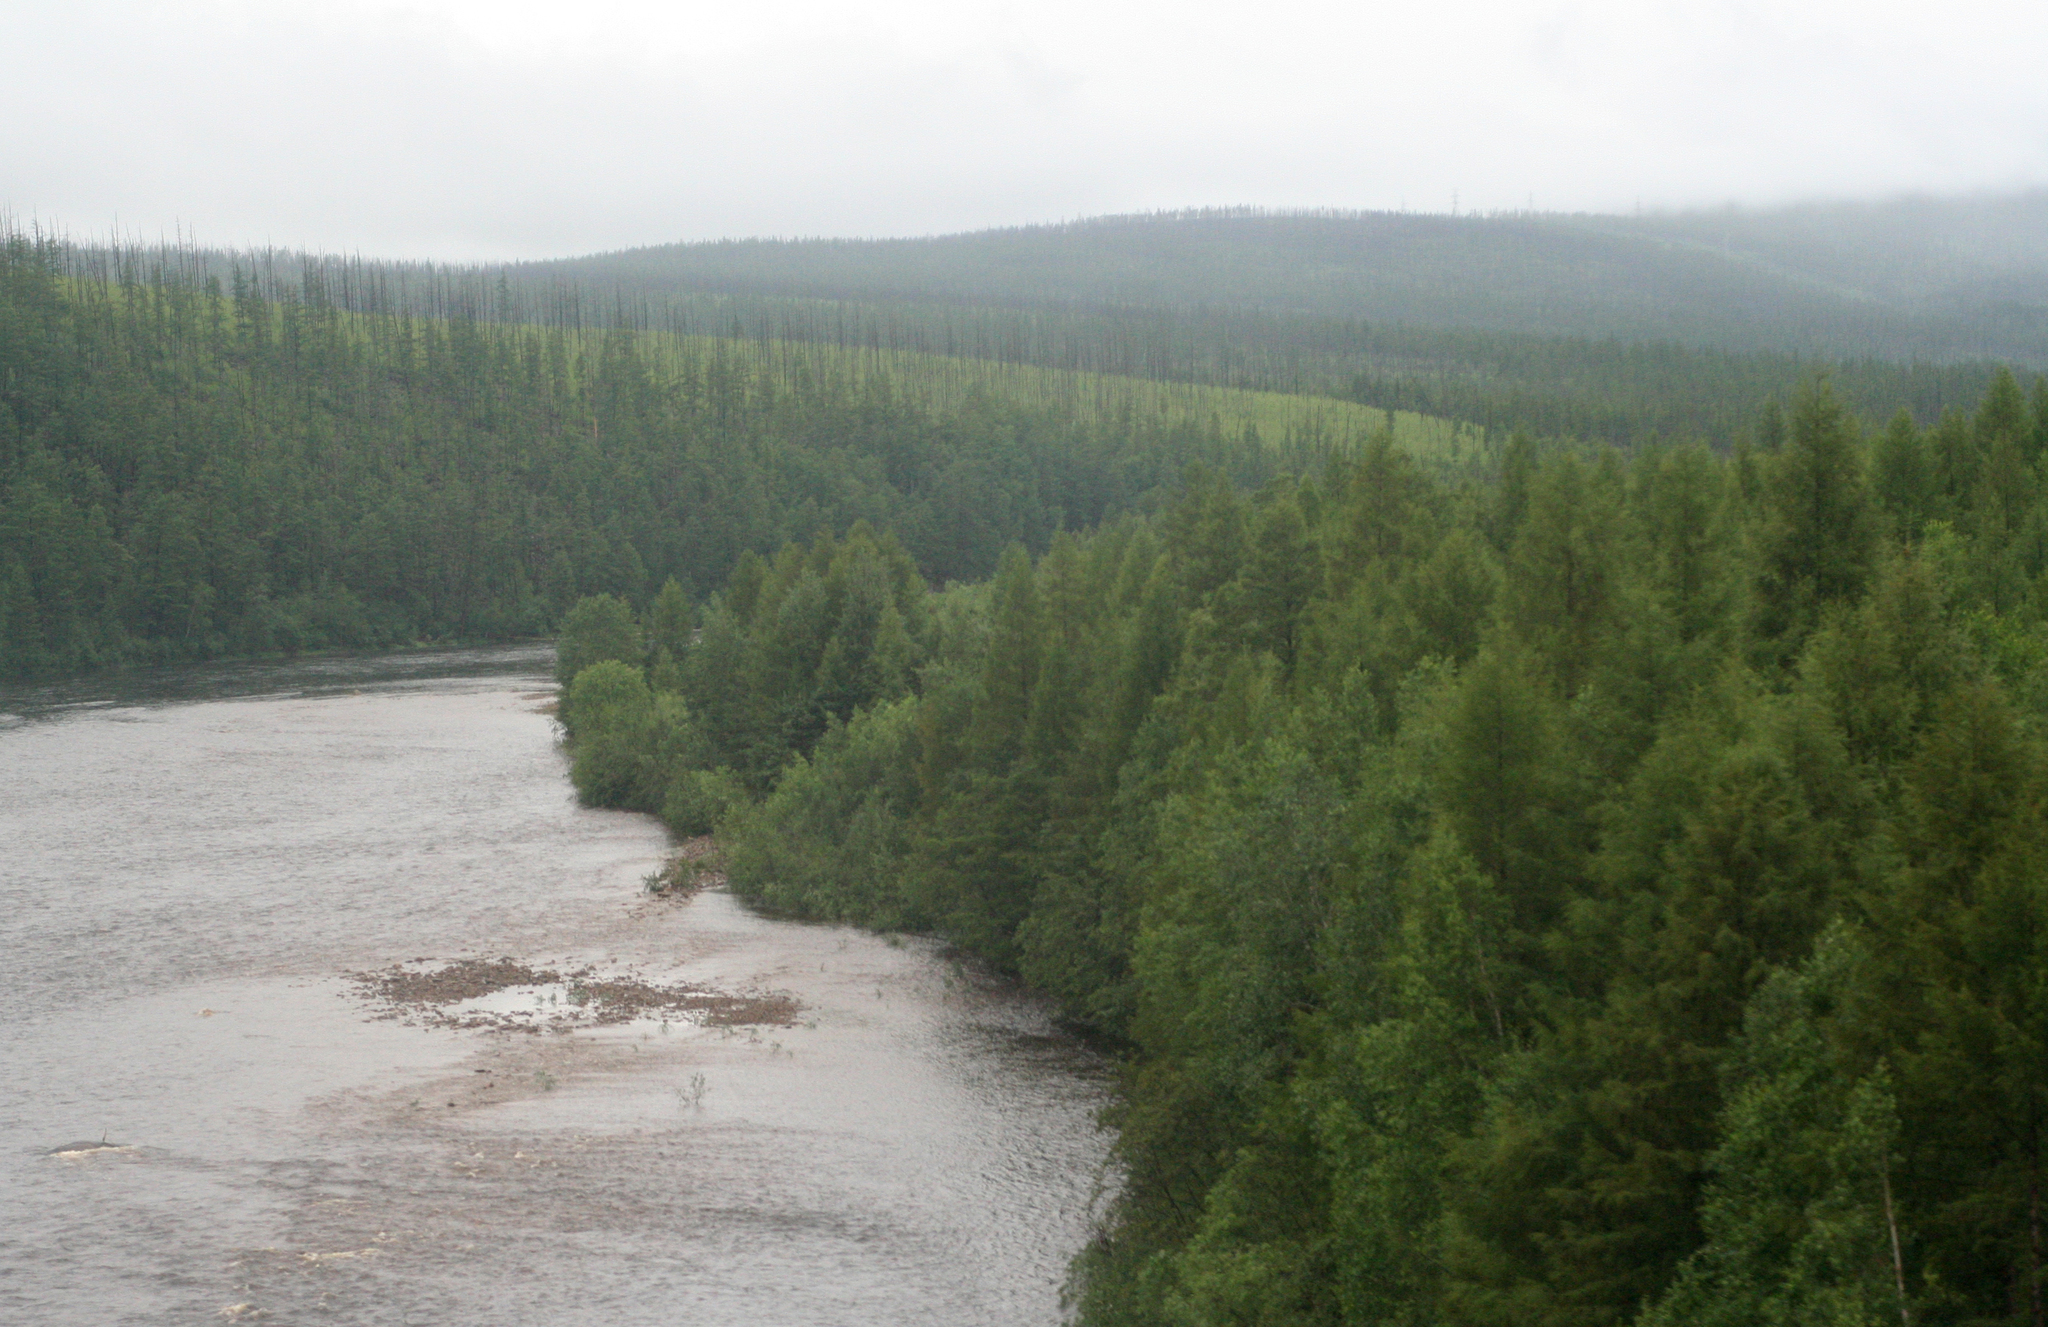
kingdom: Plantae
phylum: Tracheophyta
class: Pinopsida
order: Pinales
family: Pinaceae
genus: Larix
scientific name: Larix gmelinii
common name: Dahurian larch
